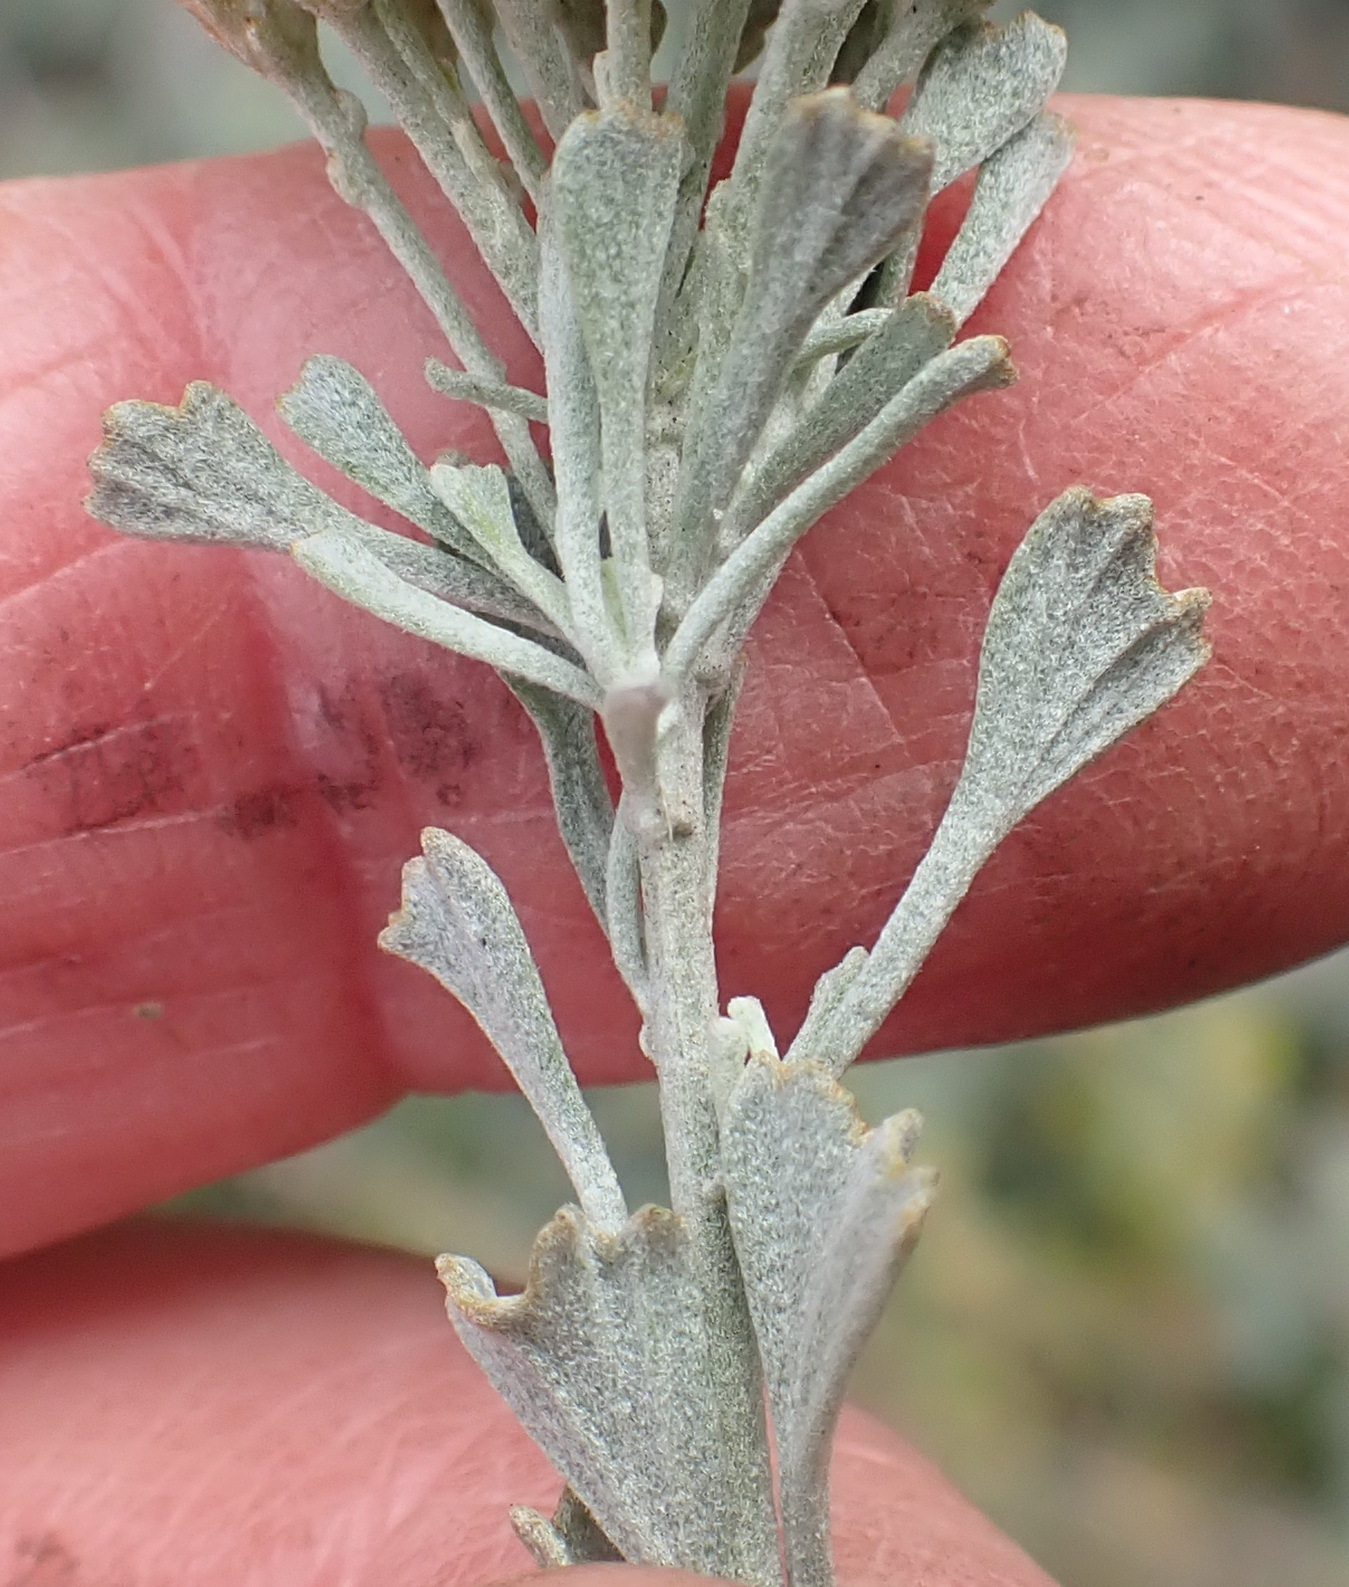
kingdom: Plantae
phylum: Tracheophyta
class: Magnoliopsida
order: Asterales
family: Asteraceae
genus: Pentzia
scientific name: Pentzia dentata
